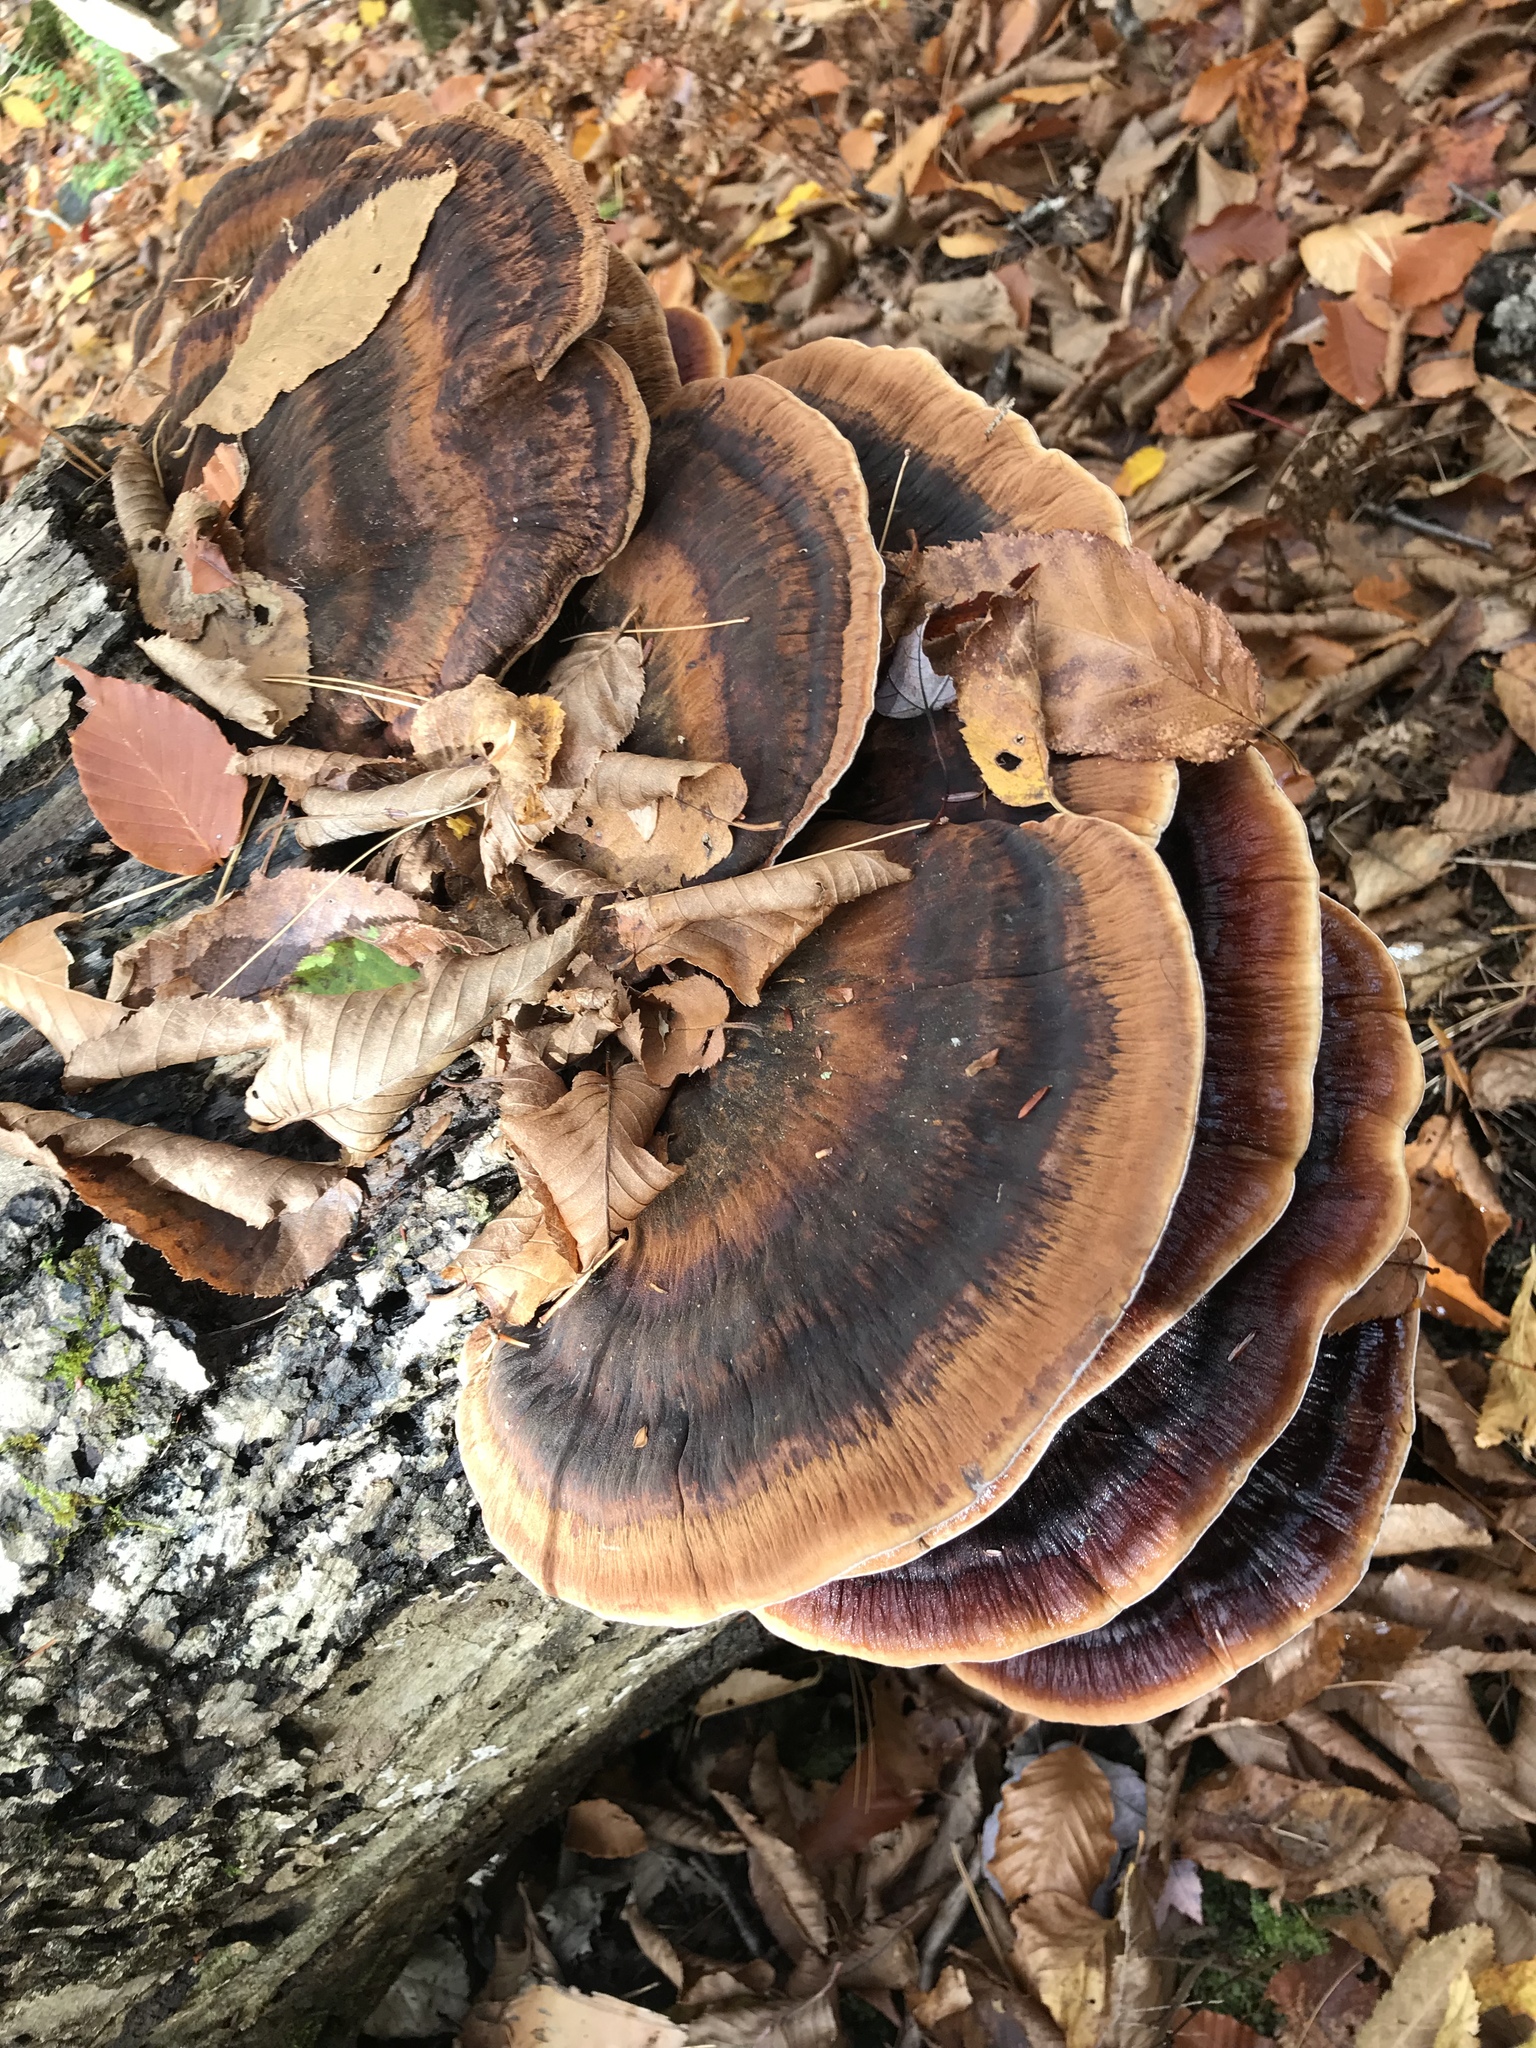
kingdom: Fungi
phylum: Basidiomycota
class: Agaricomycetes
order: Polyporales
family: Ischnodermataceae
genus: Ischnoderma
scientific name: Ischnoderma resinosum
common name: Resinous polypore
